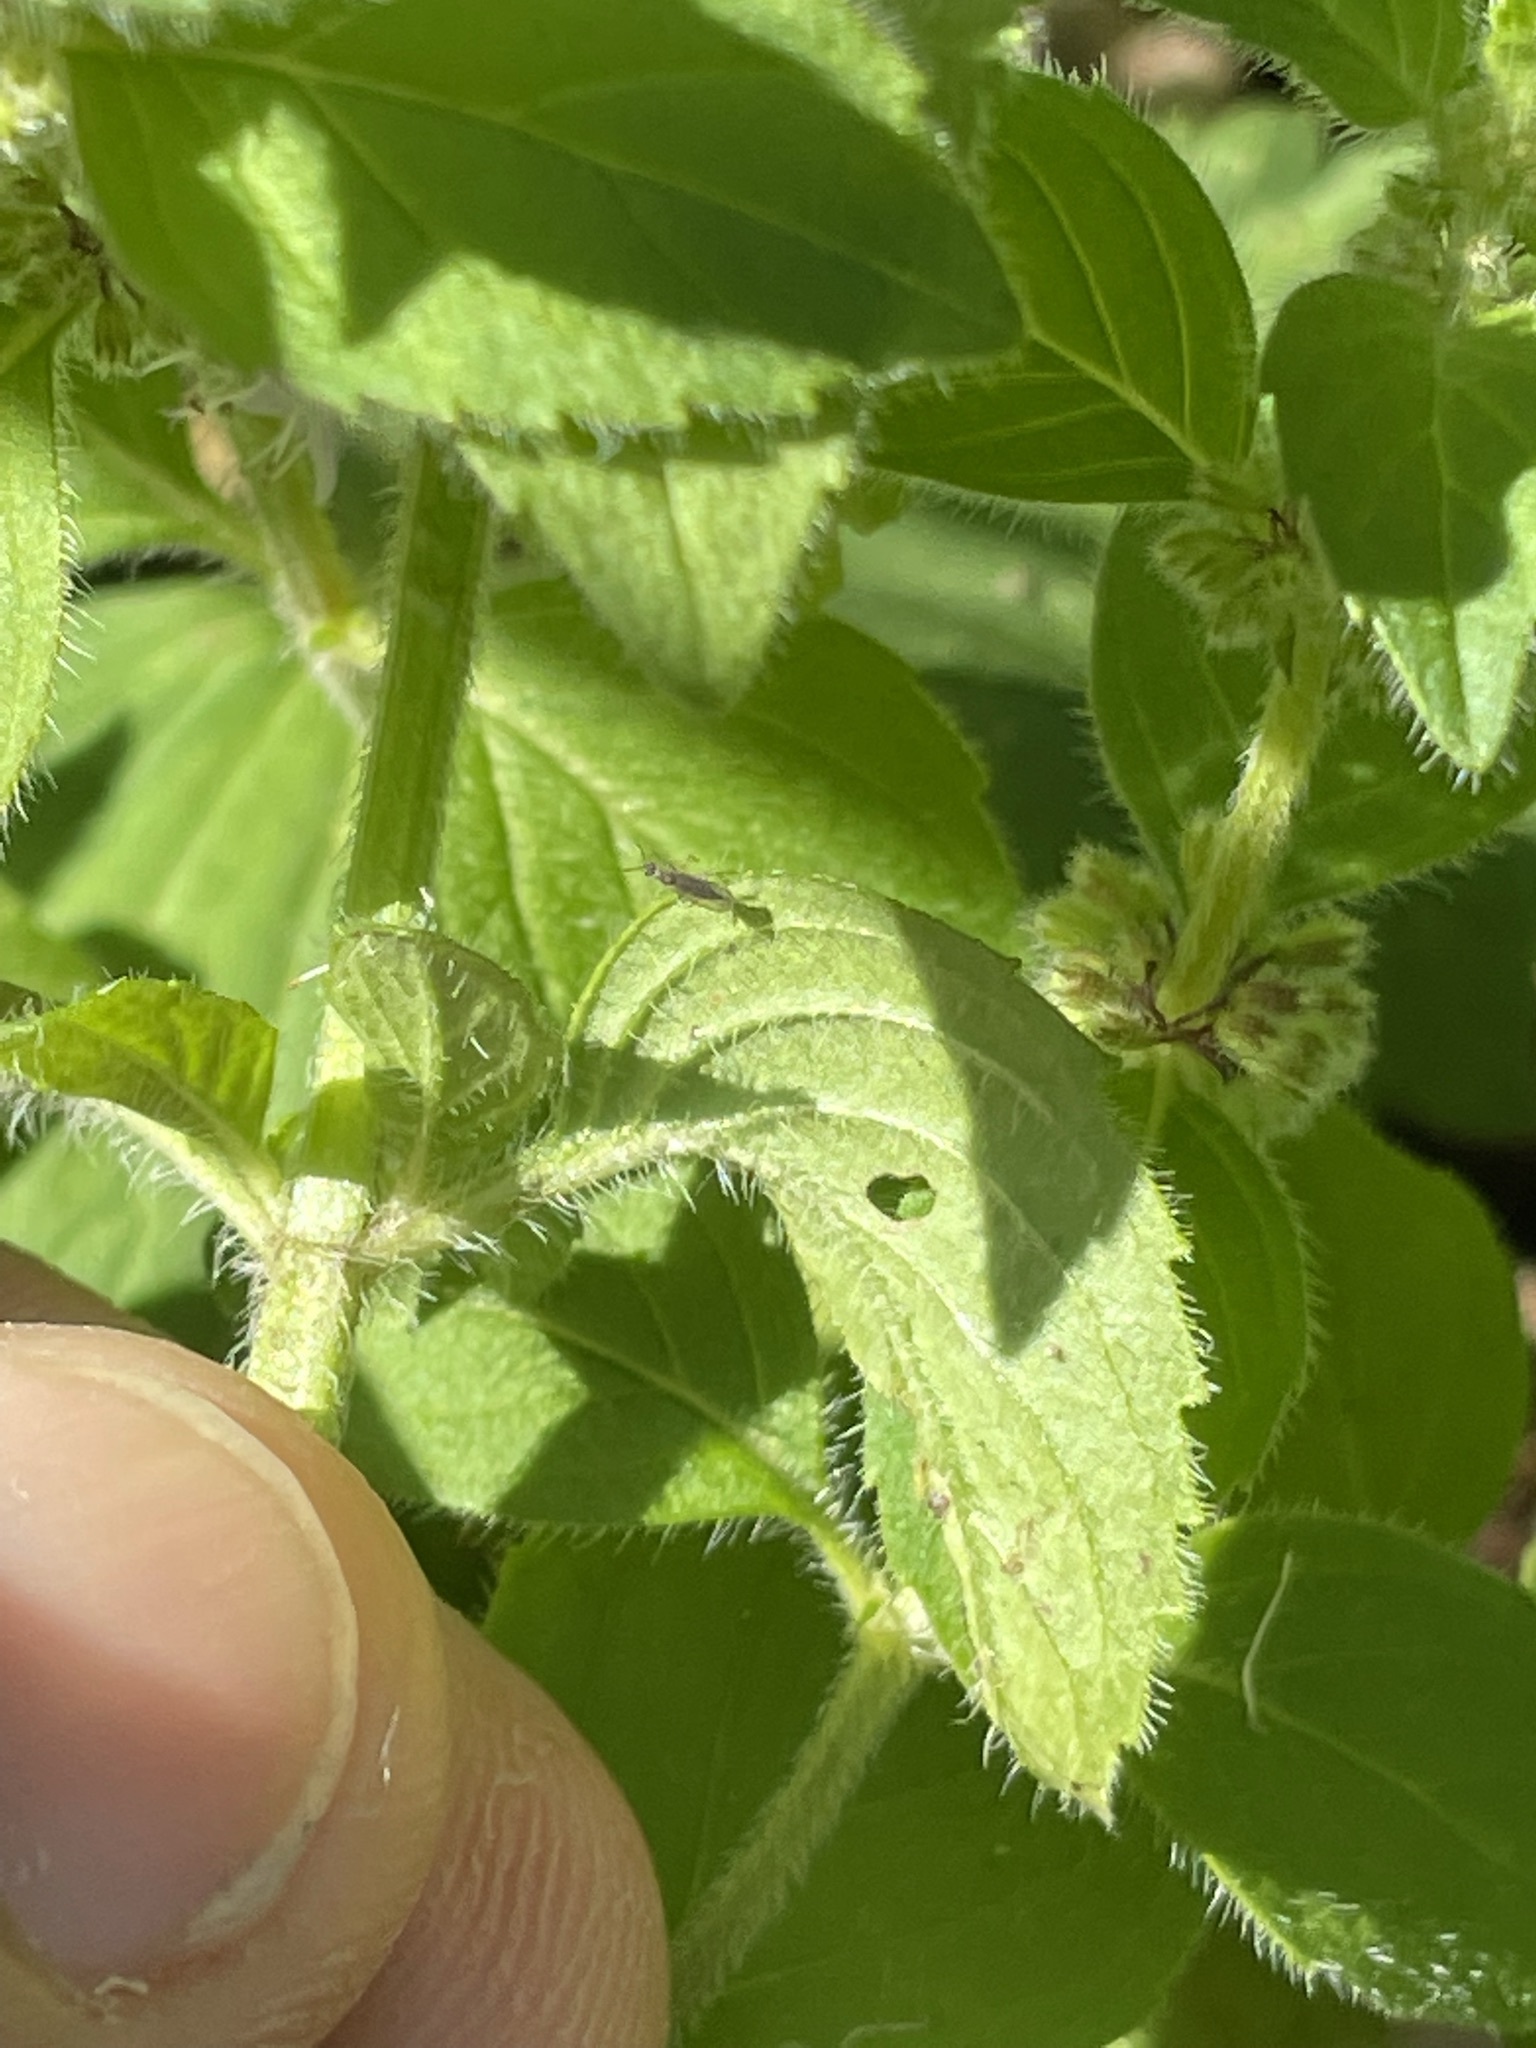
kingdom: Plantae
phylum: Tracheophyta
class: Magnoliopsida
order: Lamiales
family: Lamiaceae
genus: Mentha
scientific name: Mentha arvensis
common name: Corn mint
